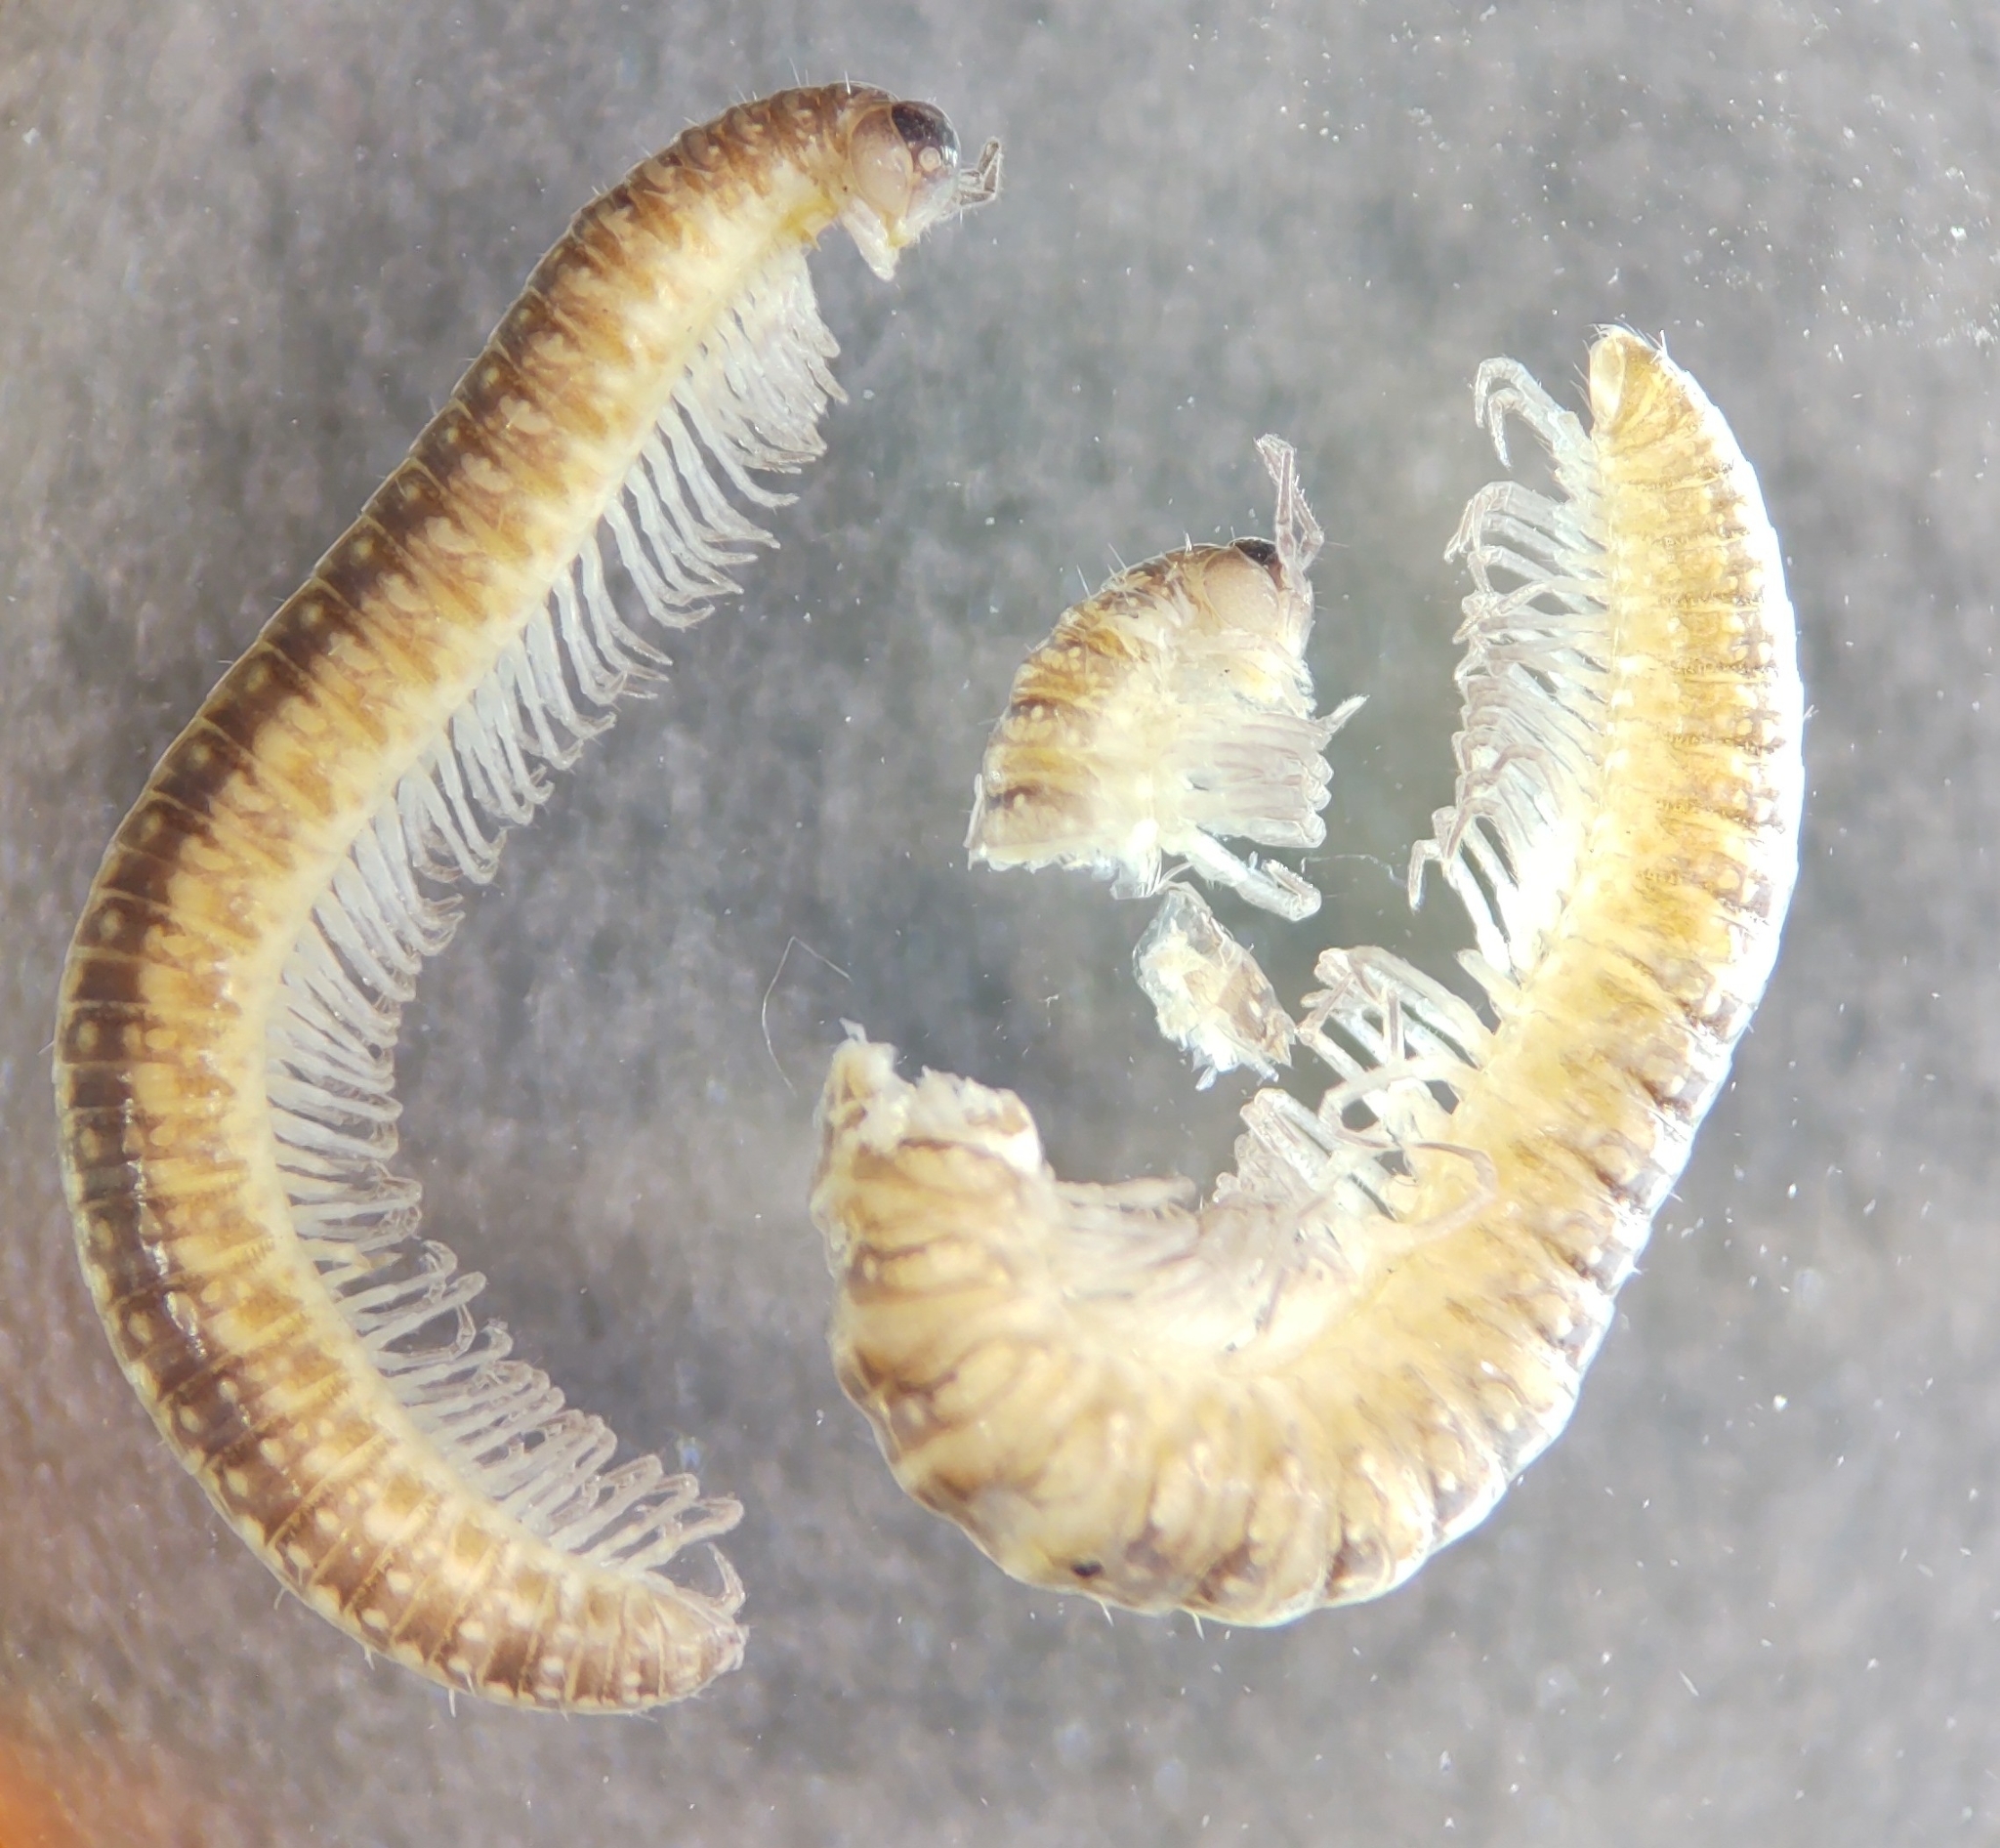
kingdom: Animalia
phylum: Arthropoda
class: Diplopoda
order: Chordeumatida
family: Cleidogonidae
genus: Cleidogona
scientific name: Cleidogona alata
